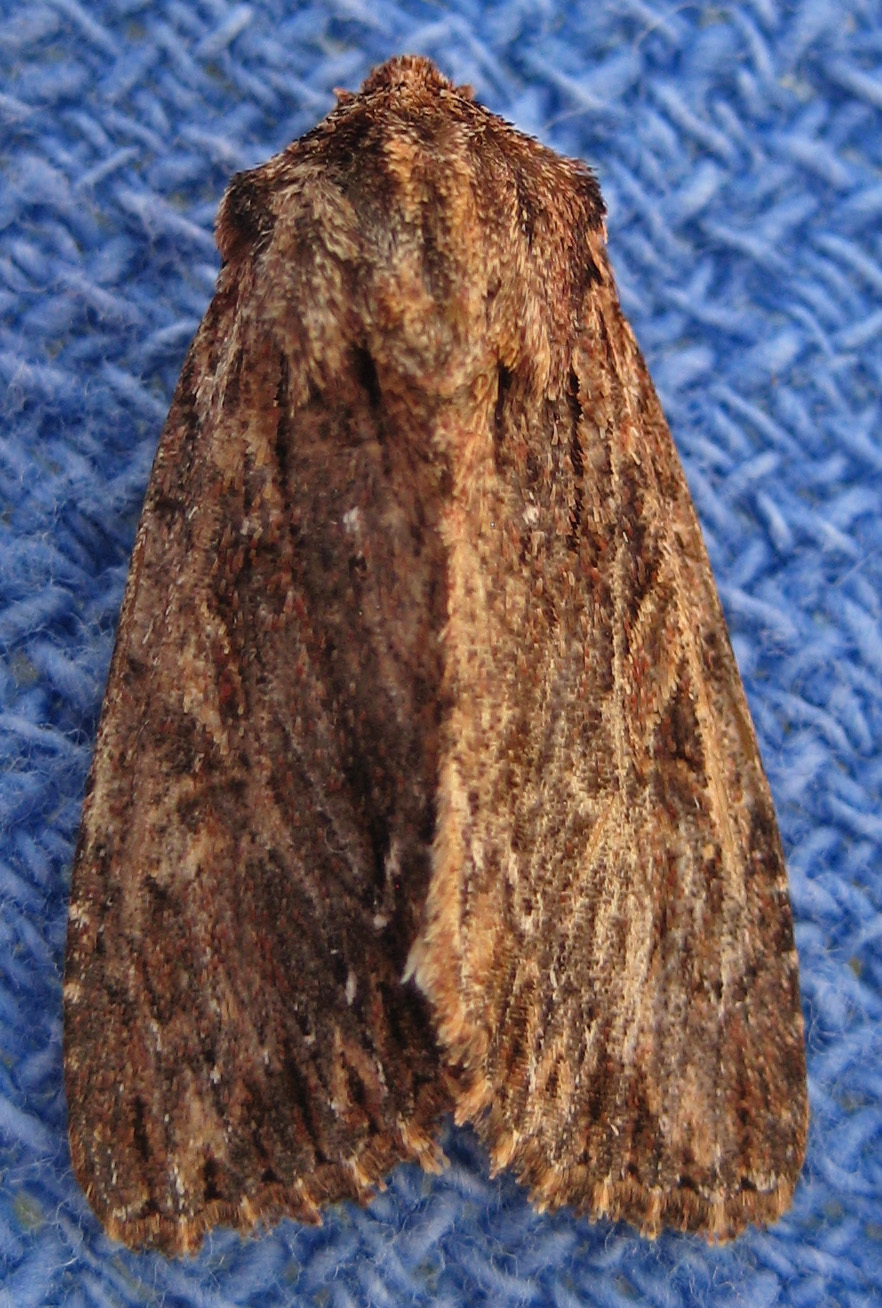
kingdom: Animalia
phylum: Arthropoda
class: Insecta
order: Lepidoptera
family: Noctuidae
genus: Achatia
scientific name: Achatia confusa
